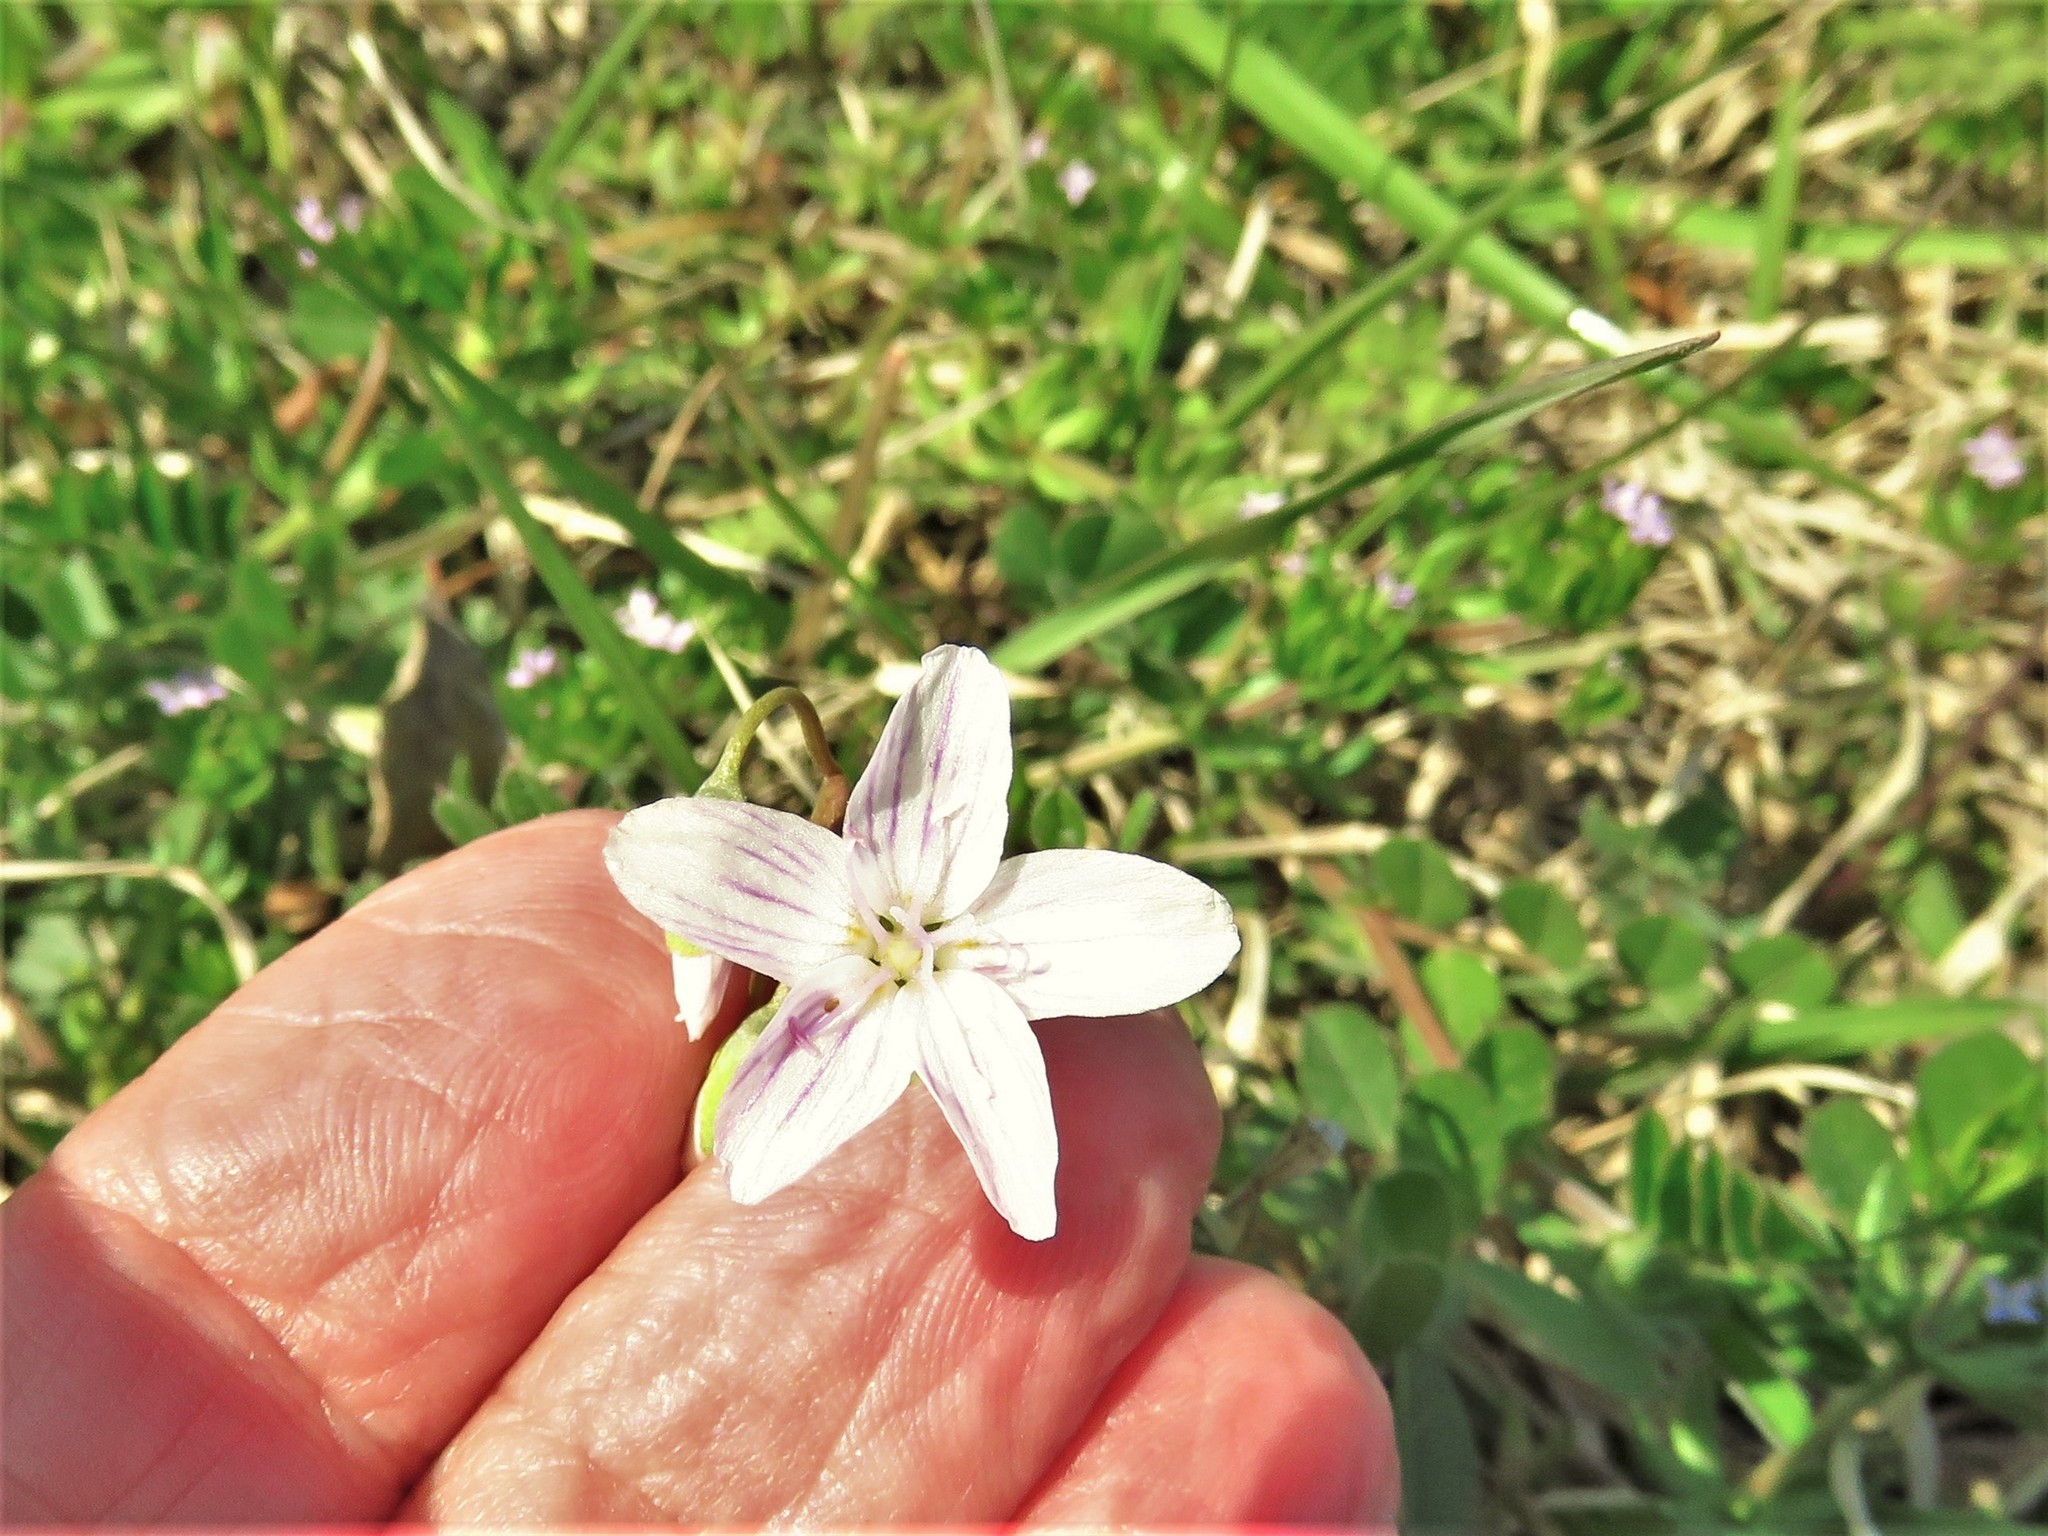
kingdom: Plantae
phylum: Tracheophyta
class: Magnoliopsida
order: Caryophyllales
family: Montiaceae
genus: Claytonia
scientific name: Claytonia virginica
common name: Virginia springbeauty
